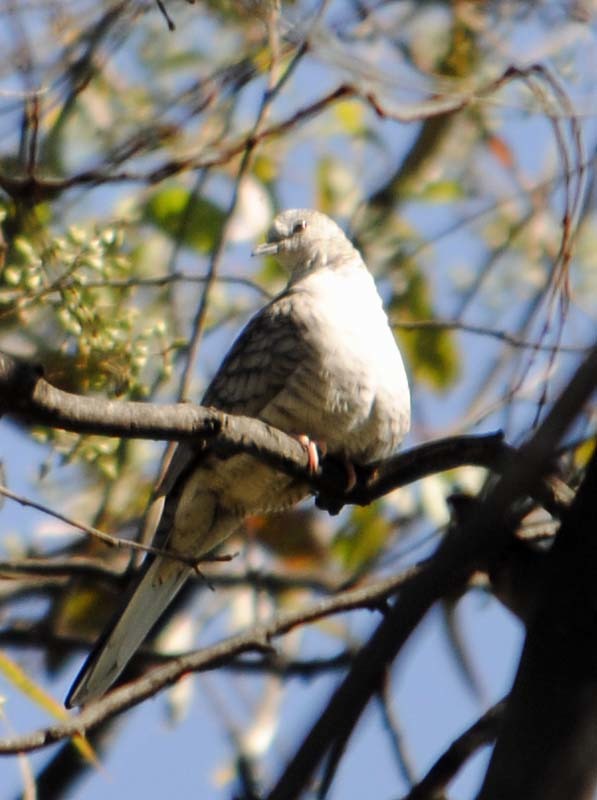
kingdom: Animalia
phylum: Chordata
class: Aves
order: Columbiformes
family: Columbidae
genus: Columbina
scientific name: Columbina inca
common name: Inca dove
